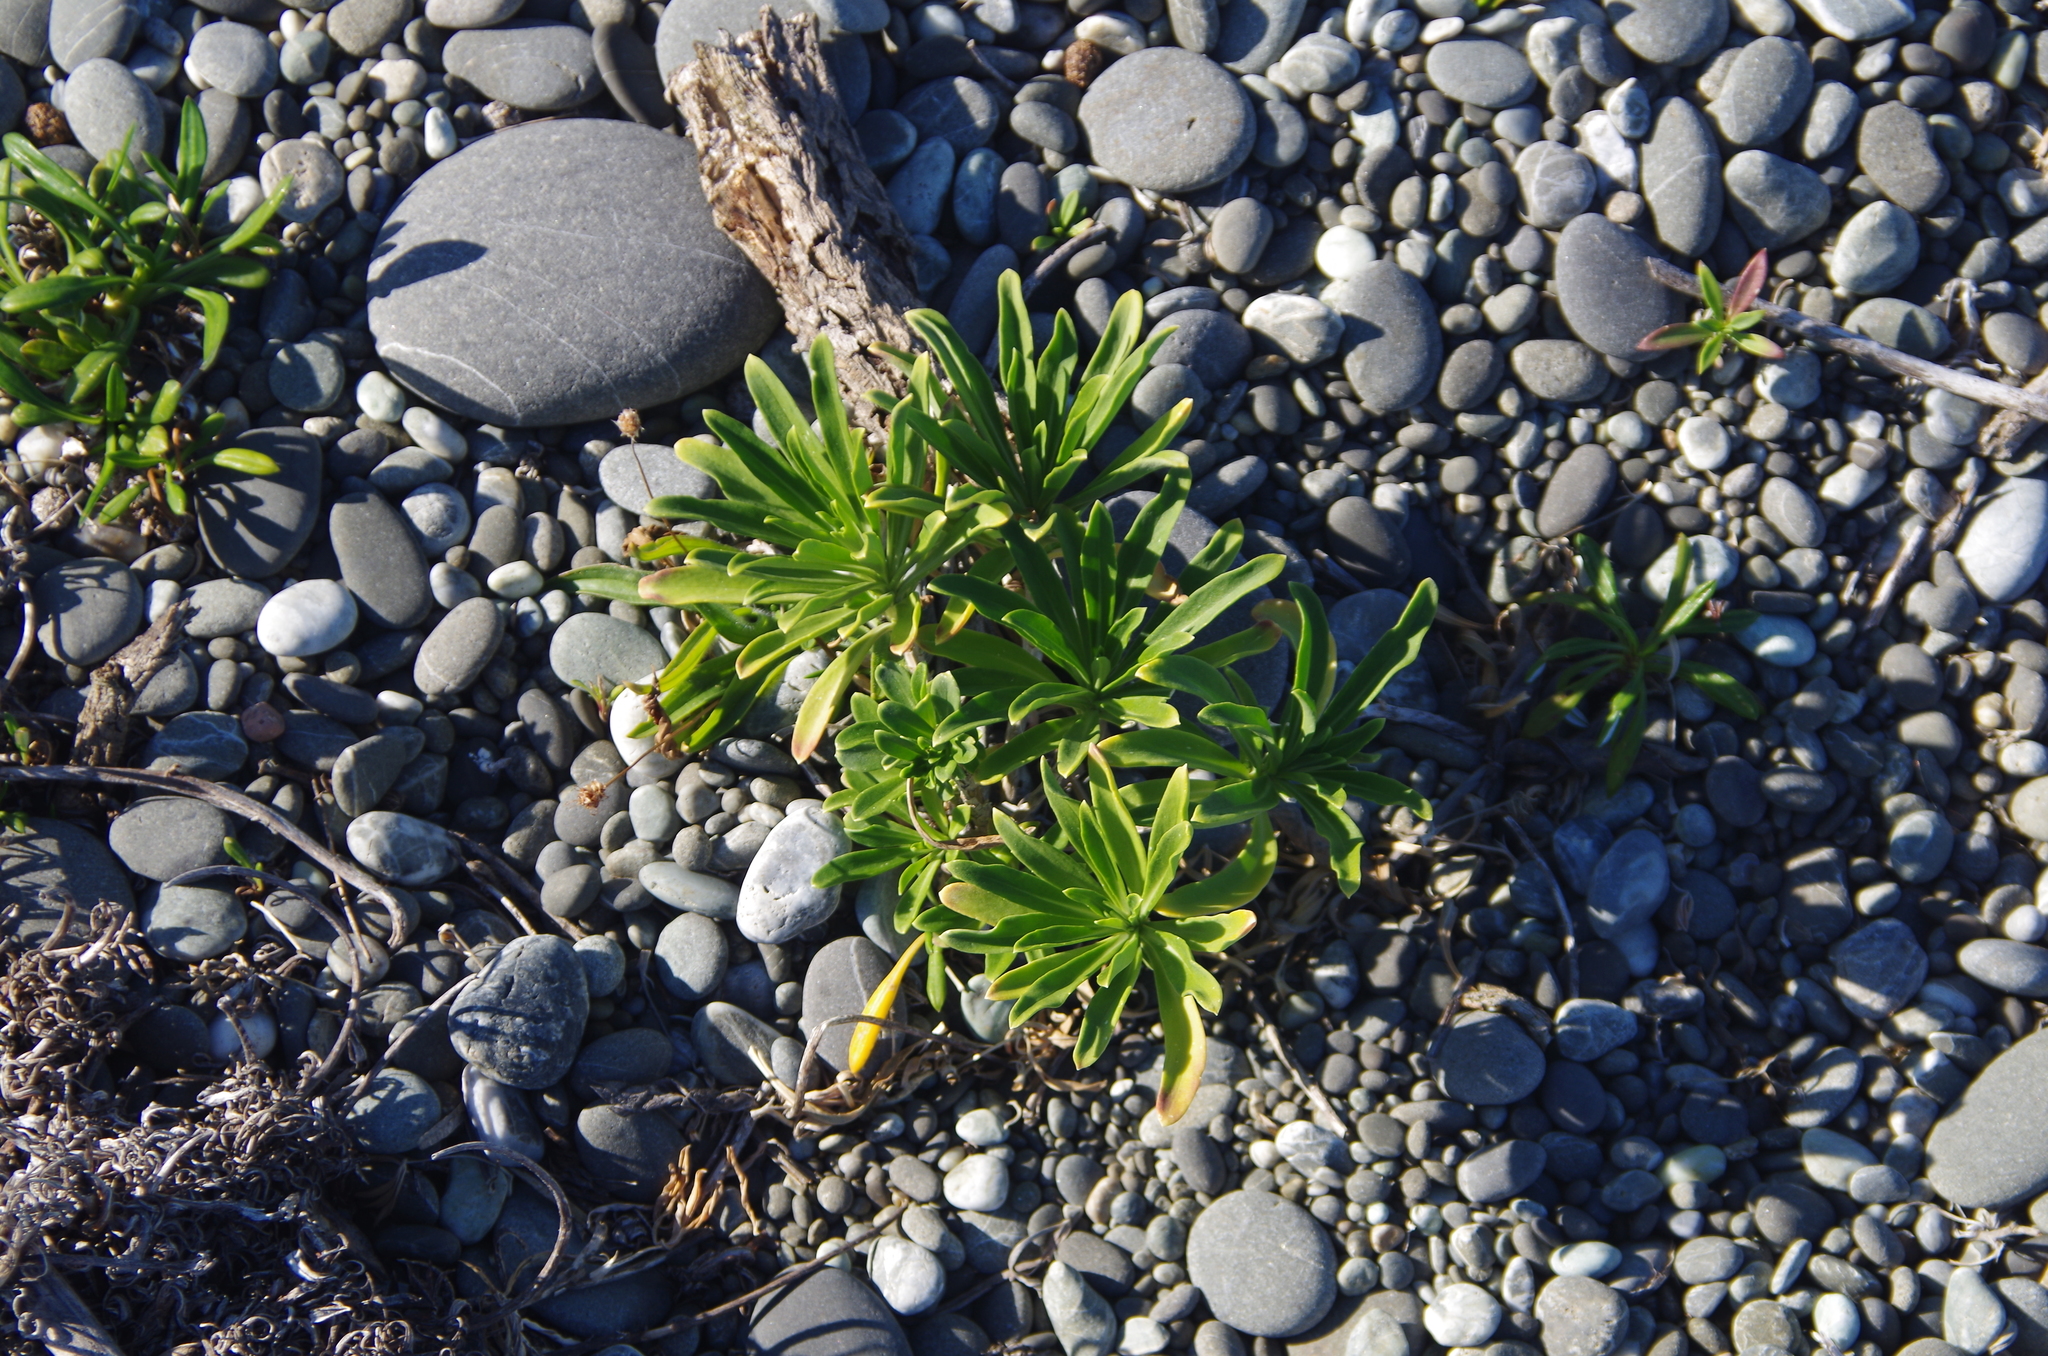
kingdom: Plantae
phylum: Tracheophyta
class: Magnoliopsida
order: Brassicales
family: Brassicaceae
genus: Erysimum
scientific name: Erysimum cheiri
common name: Wallflower
